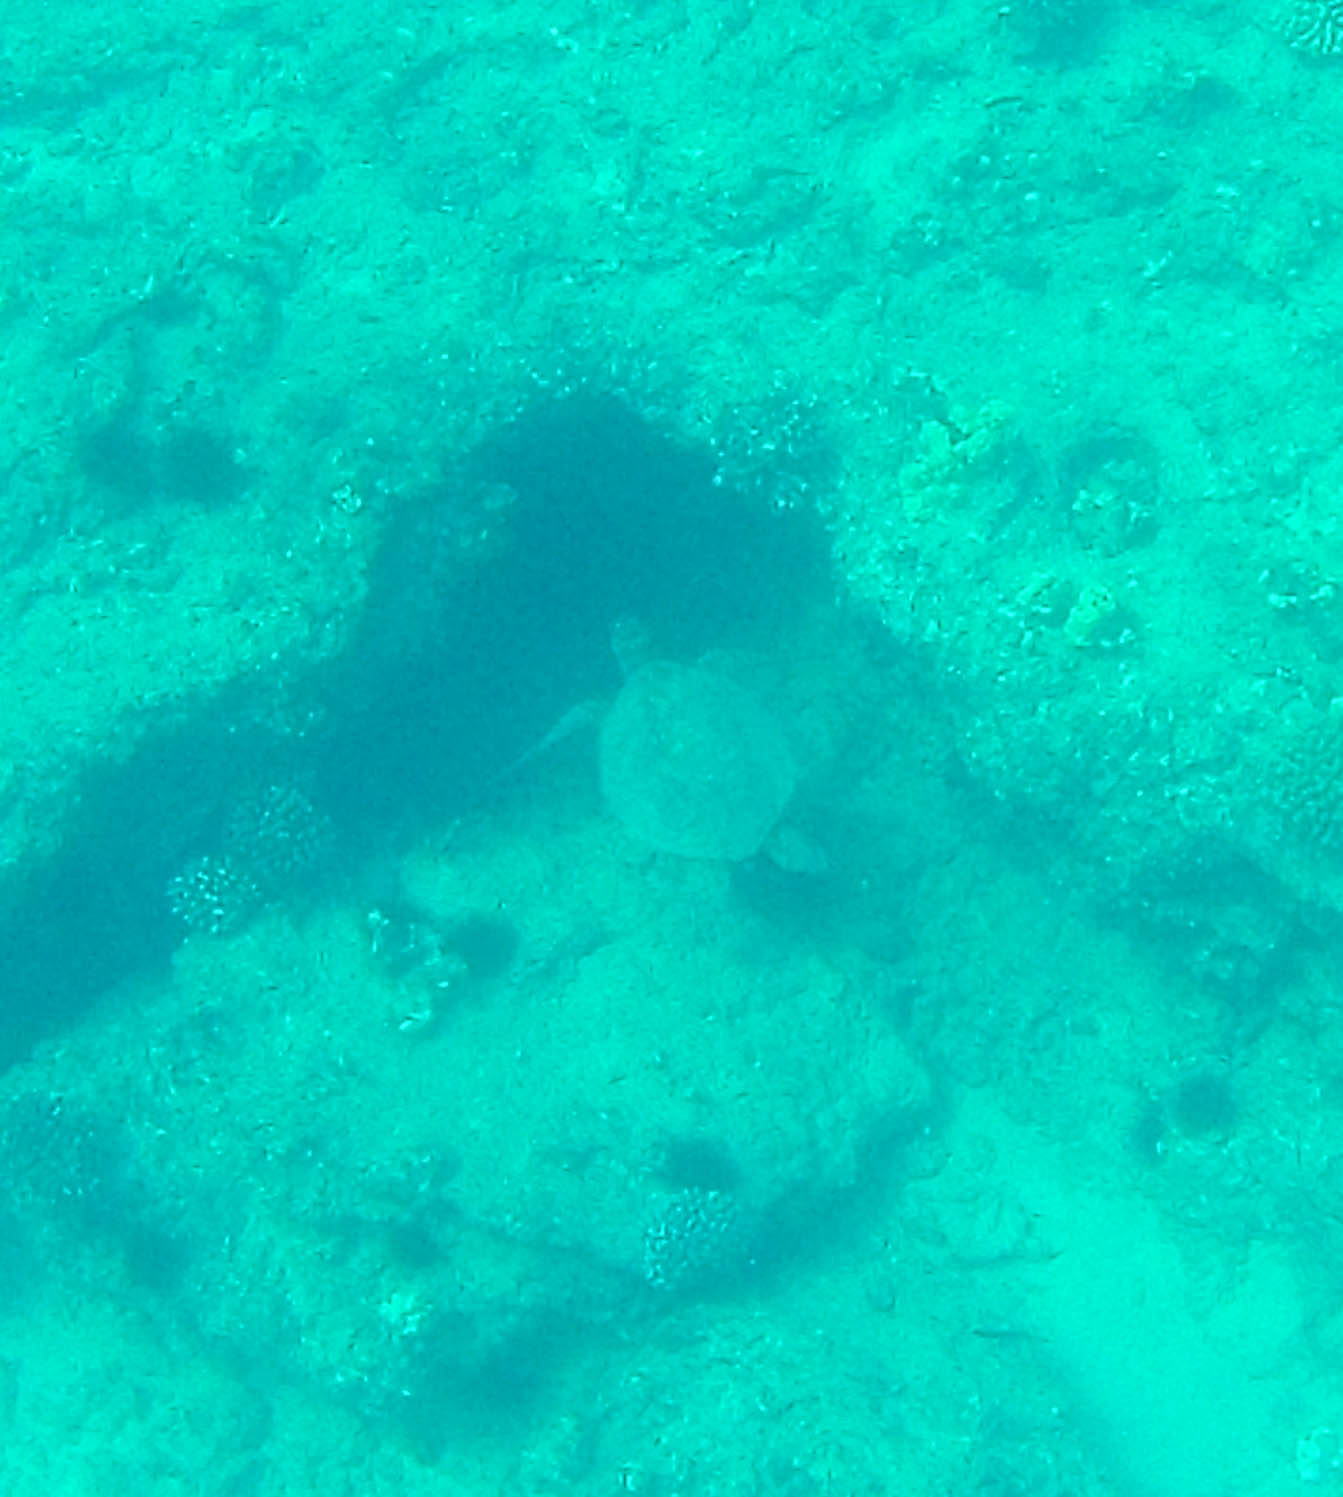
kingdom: Animalia
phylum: Chordata
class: Testudines
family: Cheloniidae
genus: Chelonia
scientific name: Chelonia mydas
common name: Green turtle
